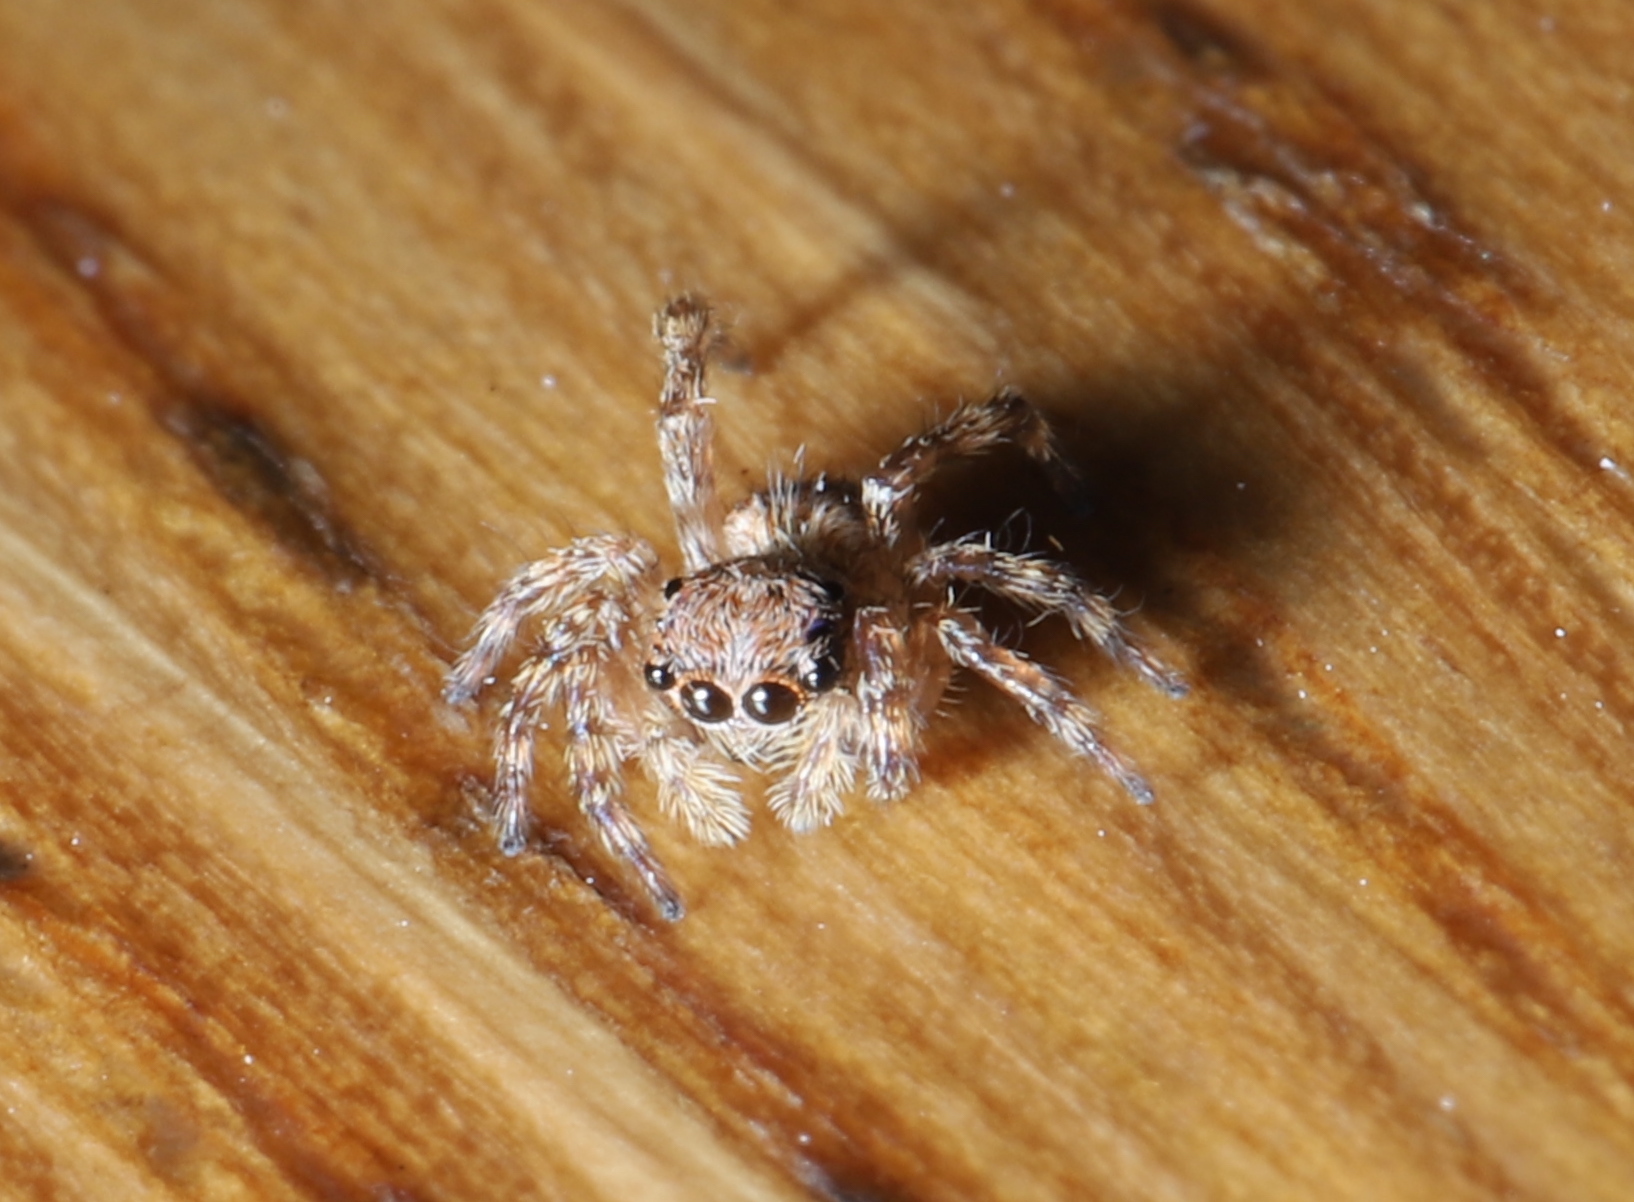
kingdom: Animalia
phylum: Arthropoda
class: Arachnida
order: Araneae
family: Salticidae
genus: Attulus
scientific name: Attulus fasciger
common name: Asiatic wall jumping spider
